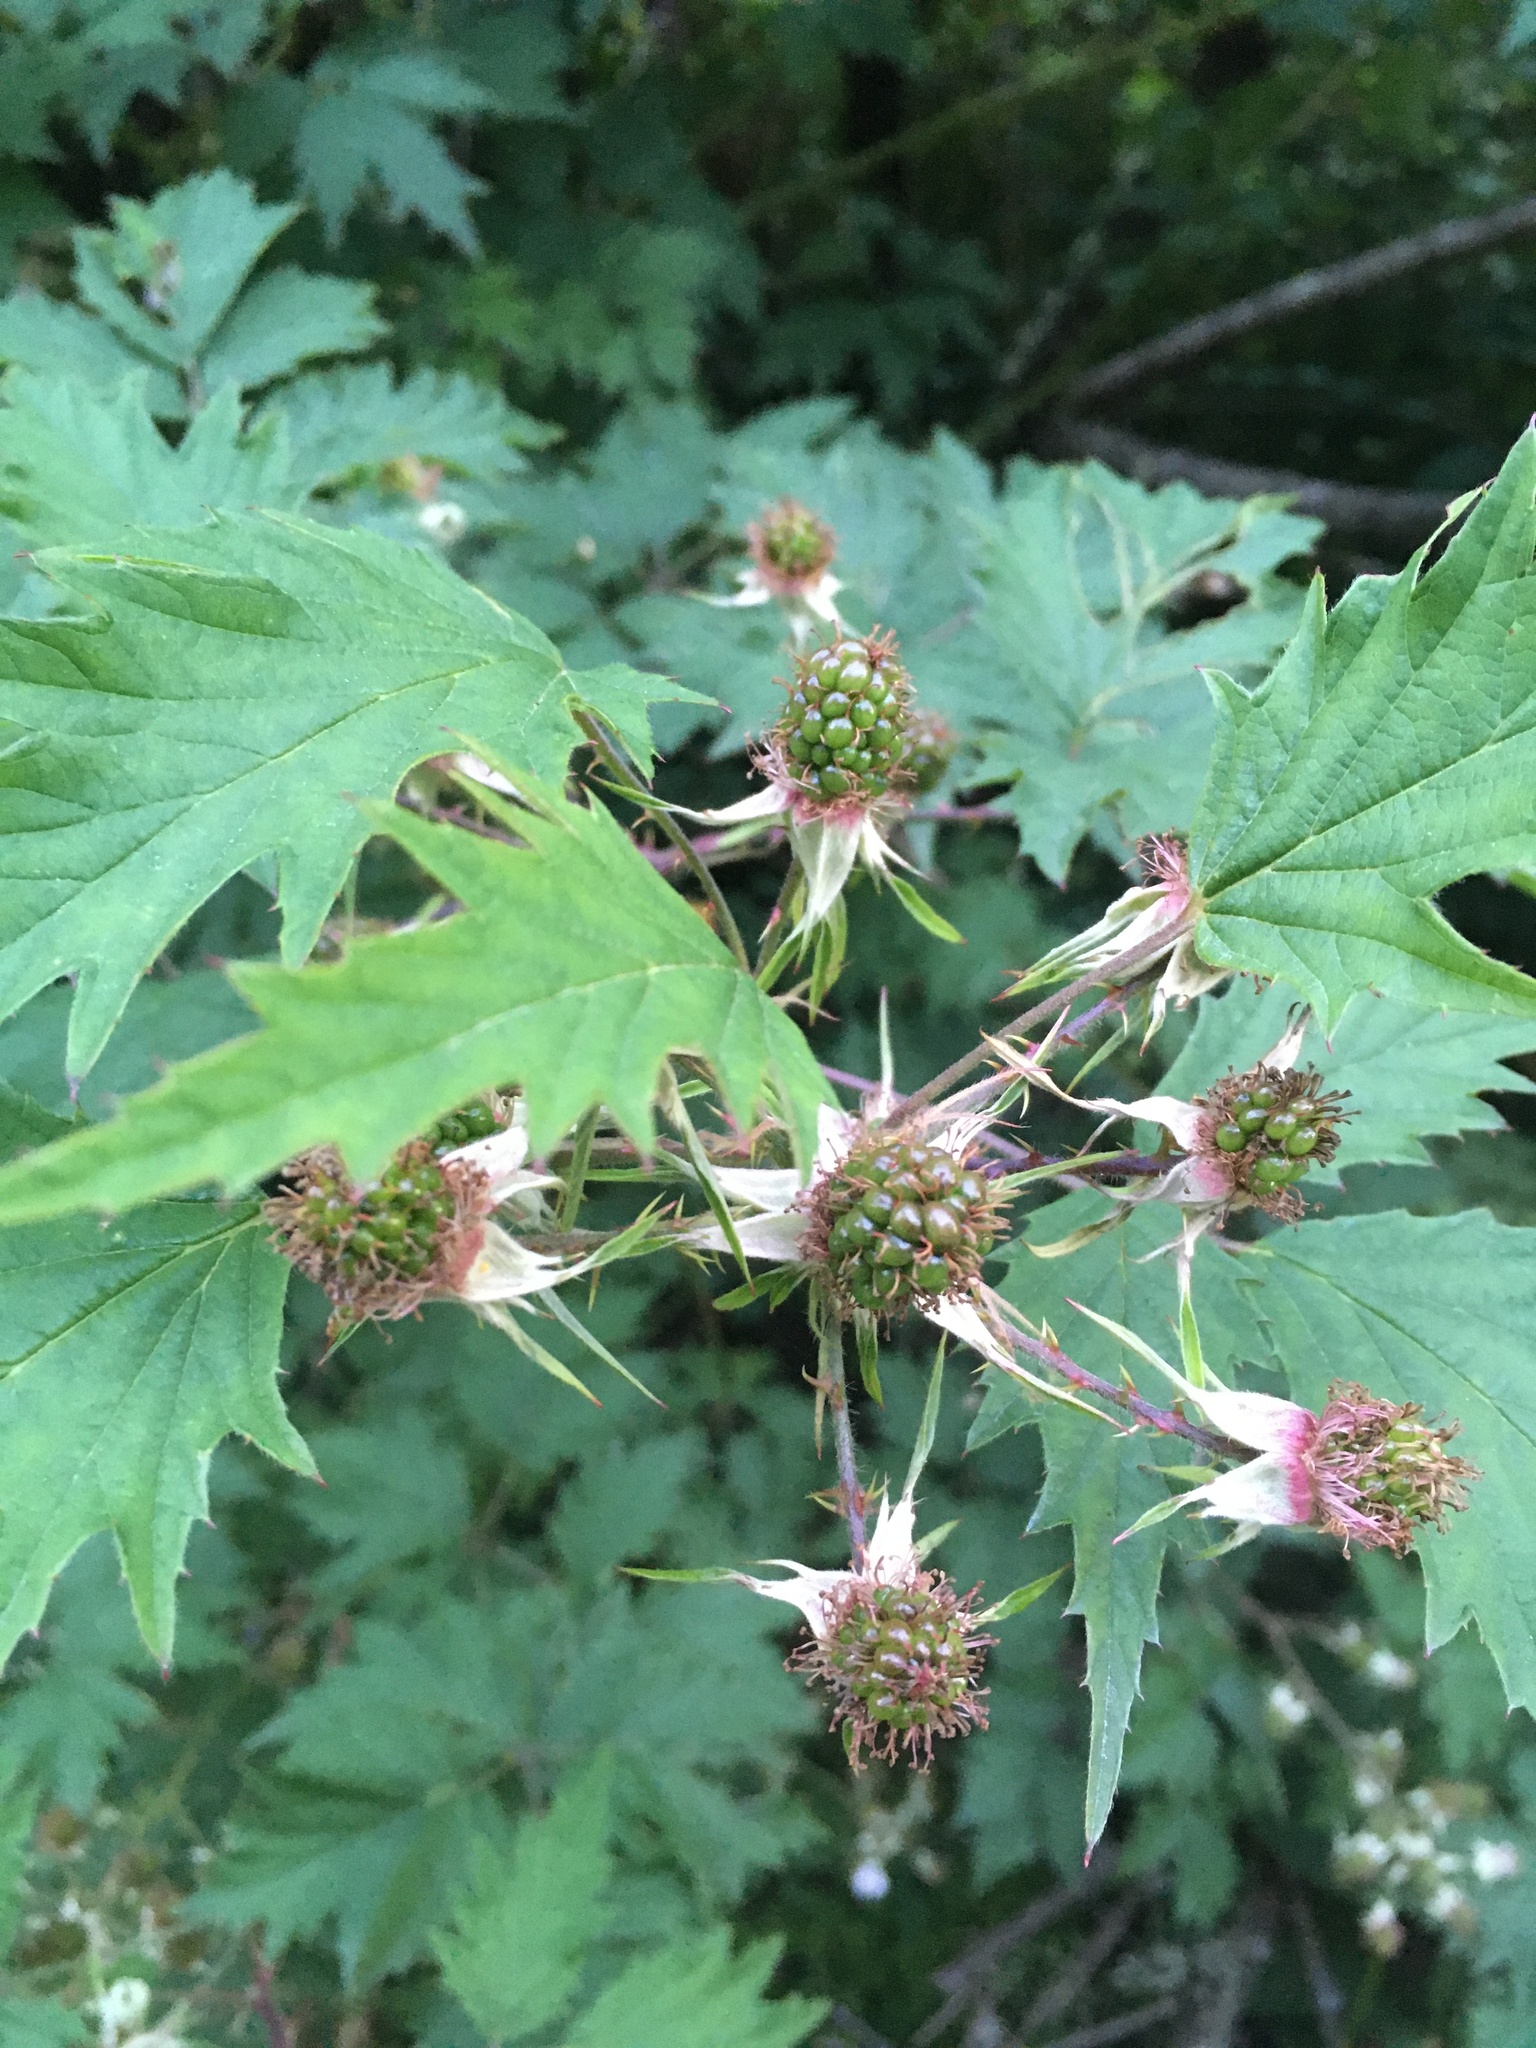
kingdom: Plantae
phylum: Tracheophyta
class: Magnoliopsida
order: Rosales
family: Rosaceae
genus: Rubus
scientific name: Rubus laciniatus
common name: Evergreen blackberry
